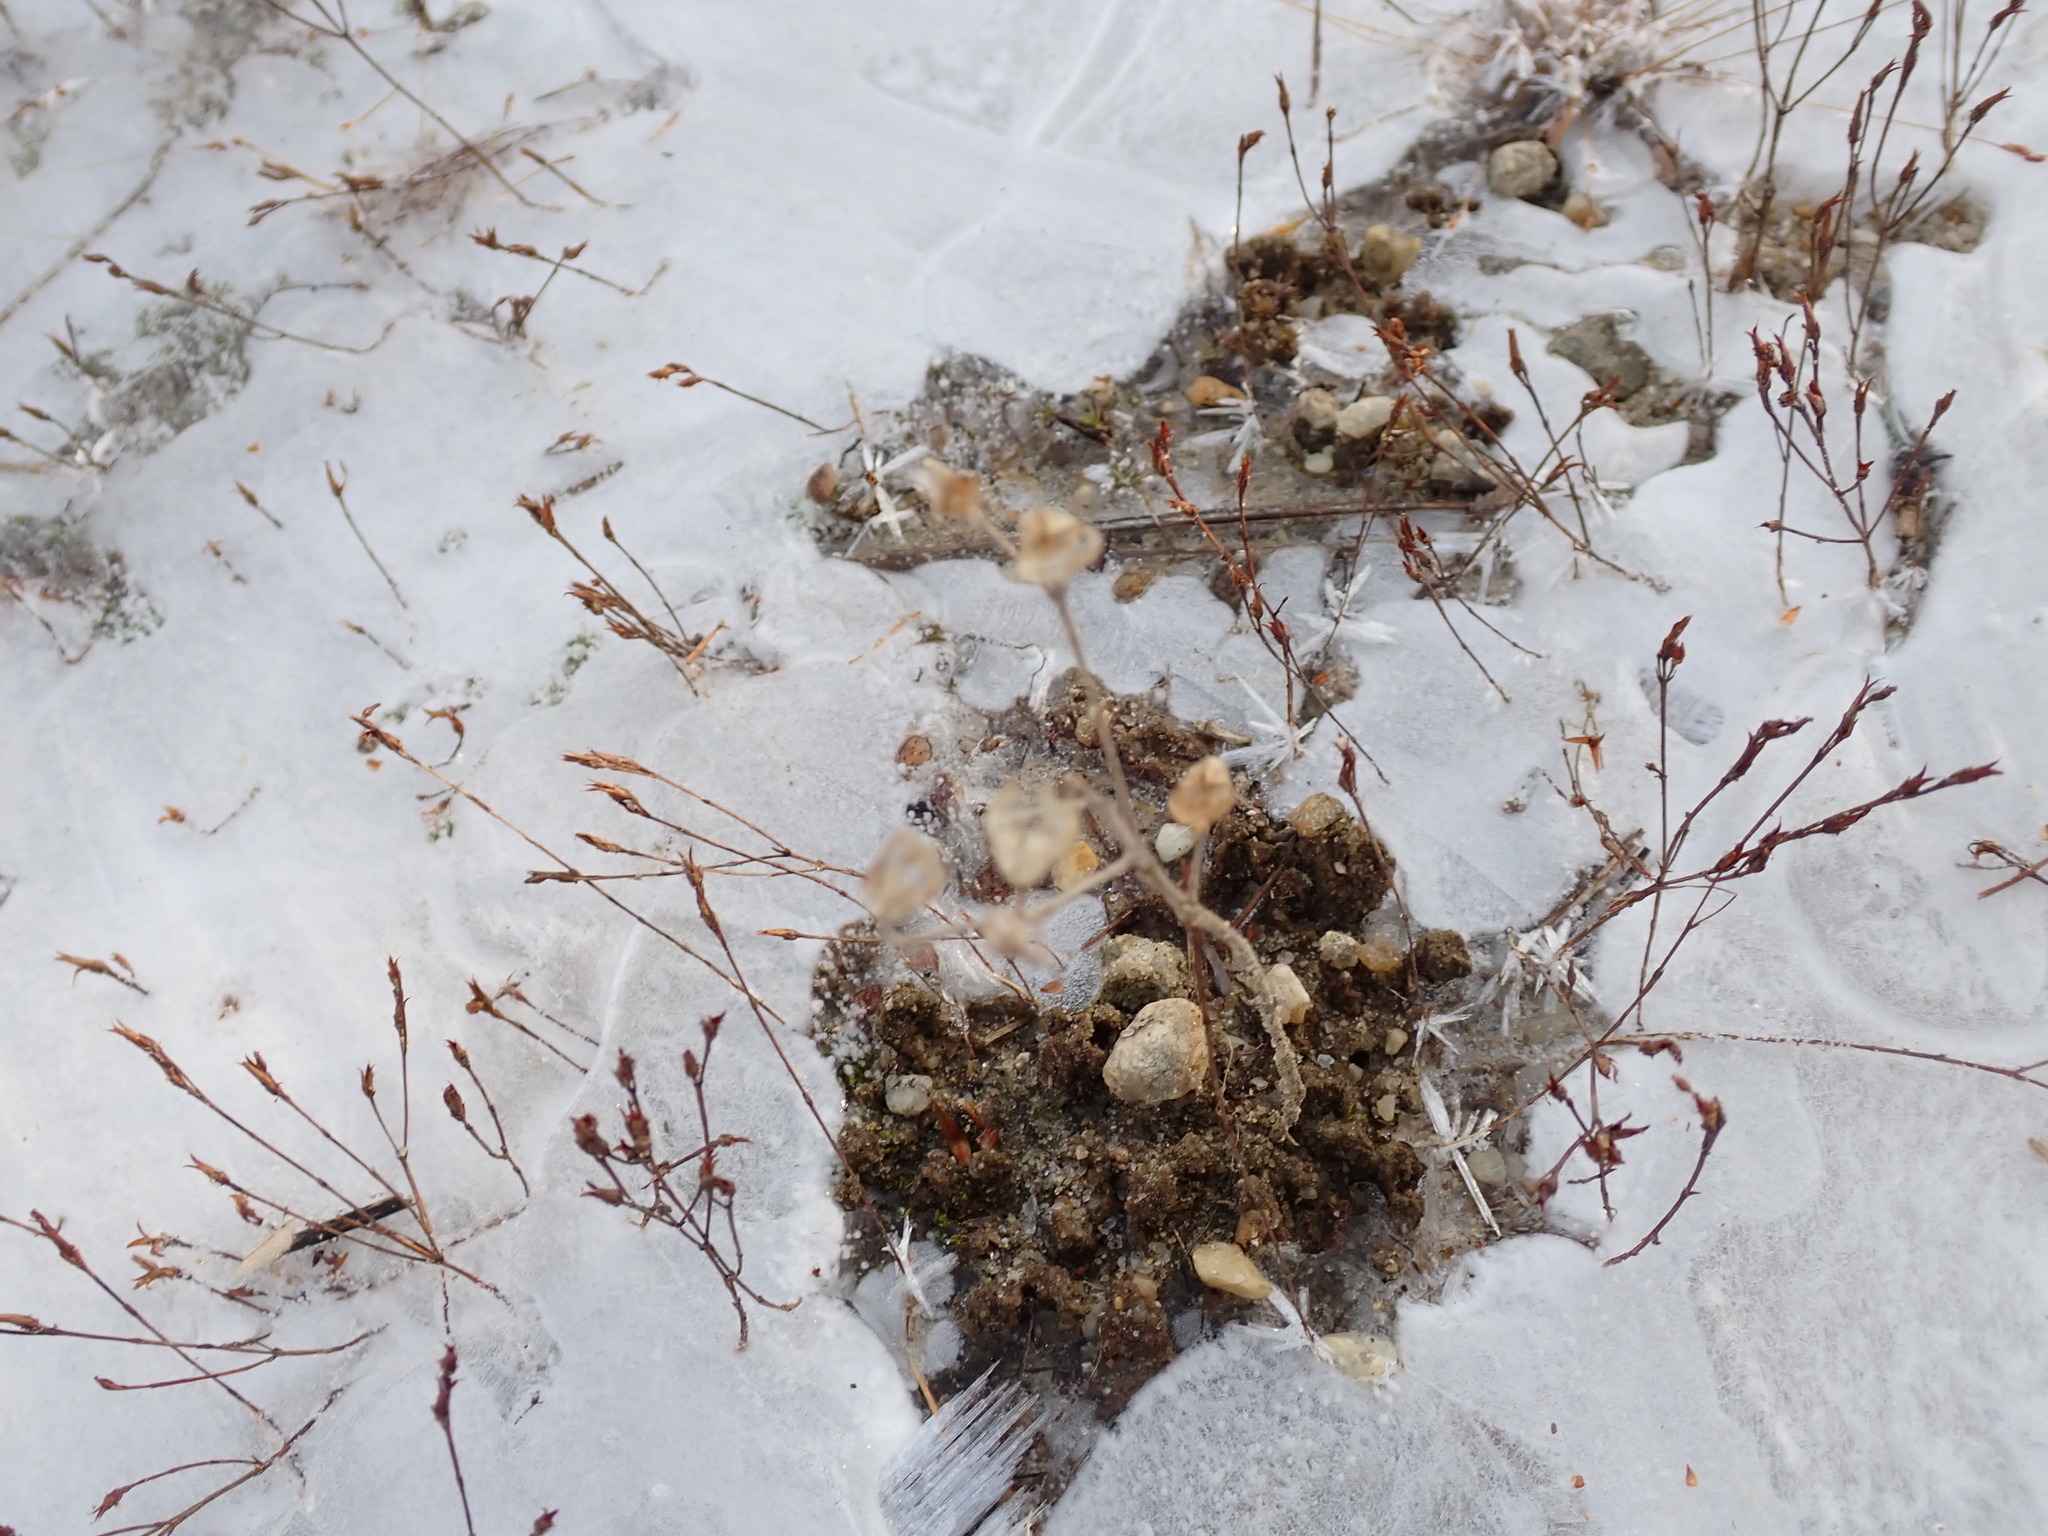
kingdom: Plantae
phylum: Tracheophyta
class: Magnoliopsida
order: Lamiales
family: Lamiaceae
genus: Trichostema
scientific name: Trichostema dichotomum
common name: Bastard pennyroyal
